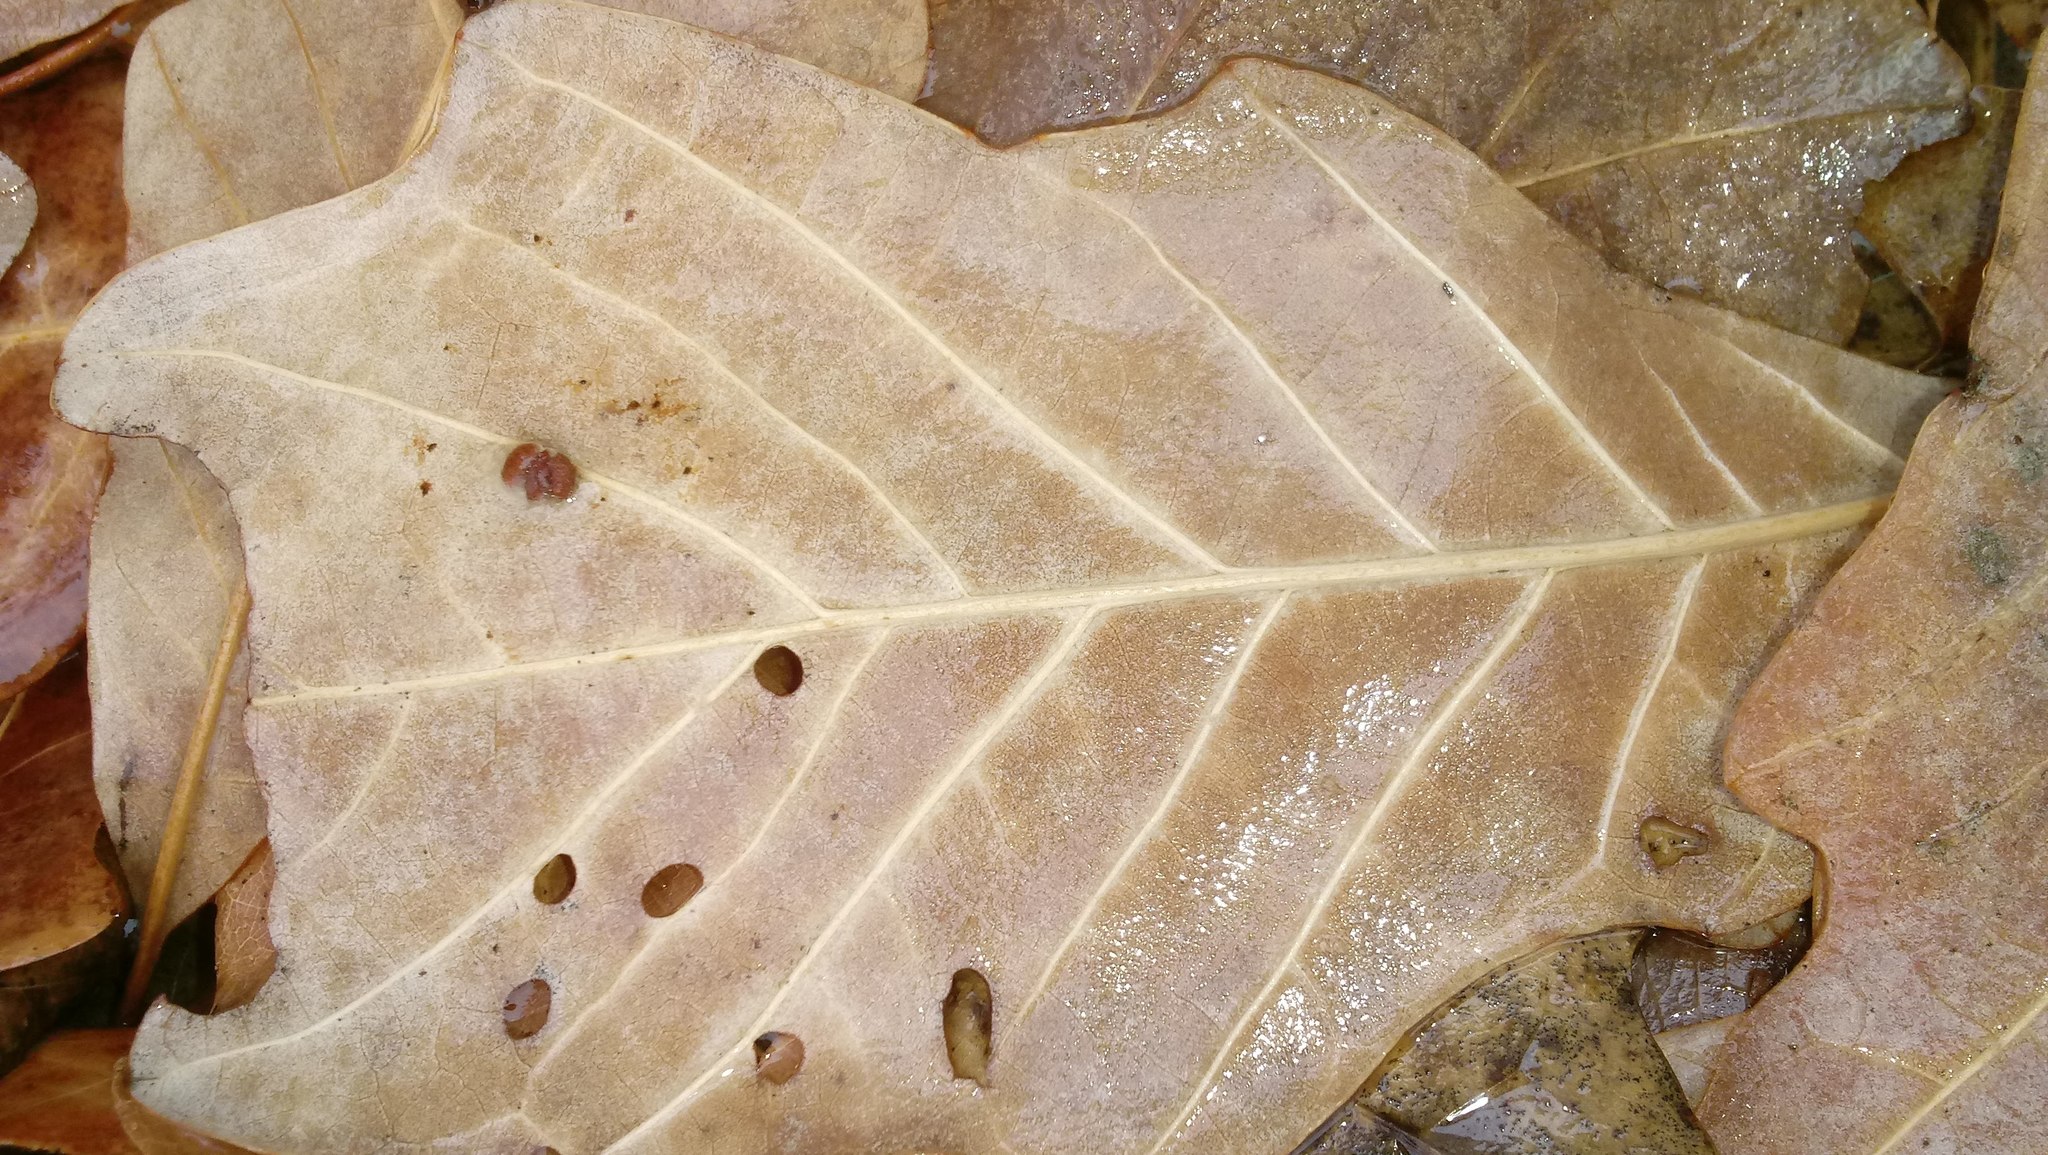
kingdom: Animalia
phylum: Arthropoda
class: Insecta
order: Hymenoptera
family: Cynipidae
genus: Andricus
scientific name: Andricus Druon ignotum
